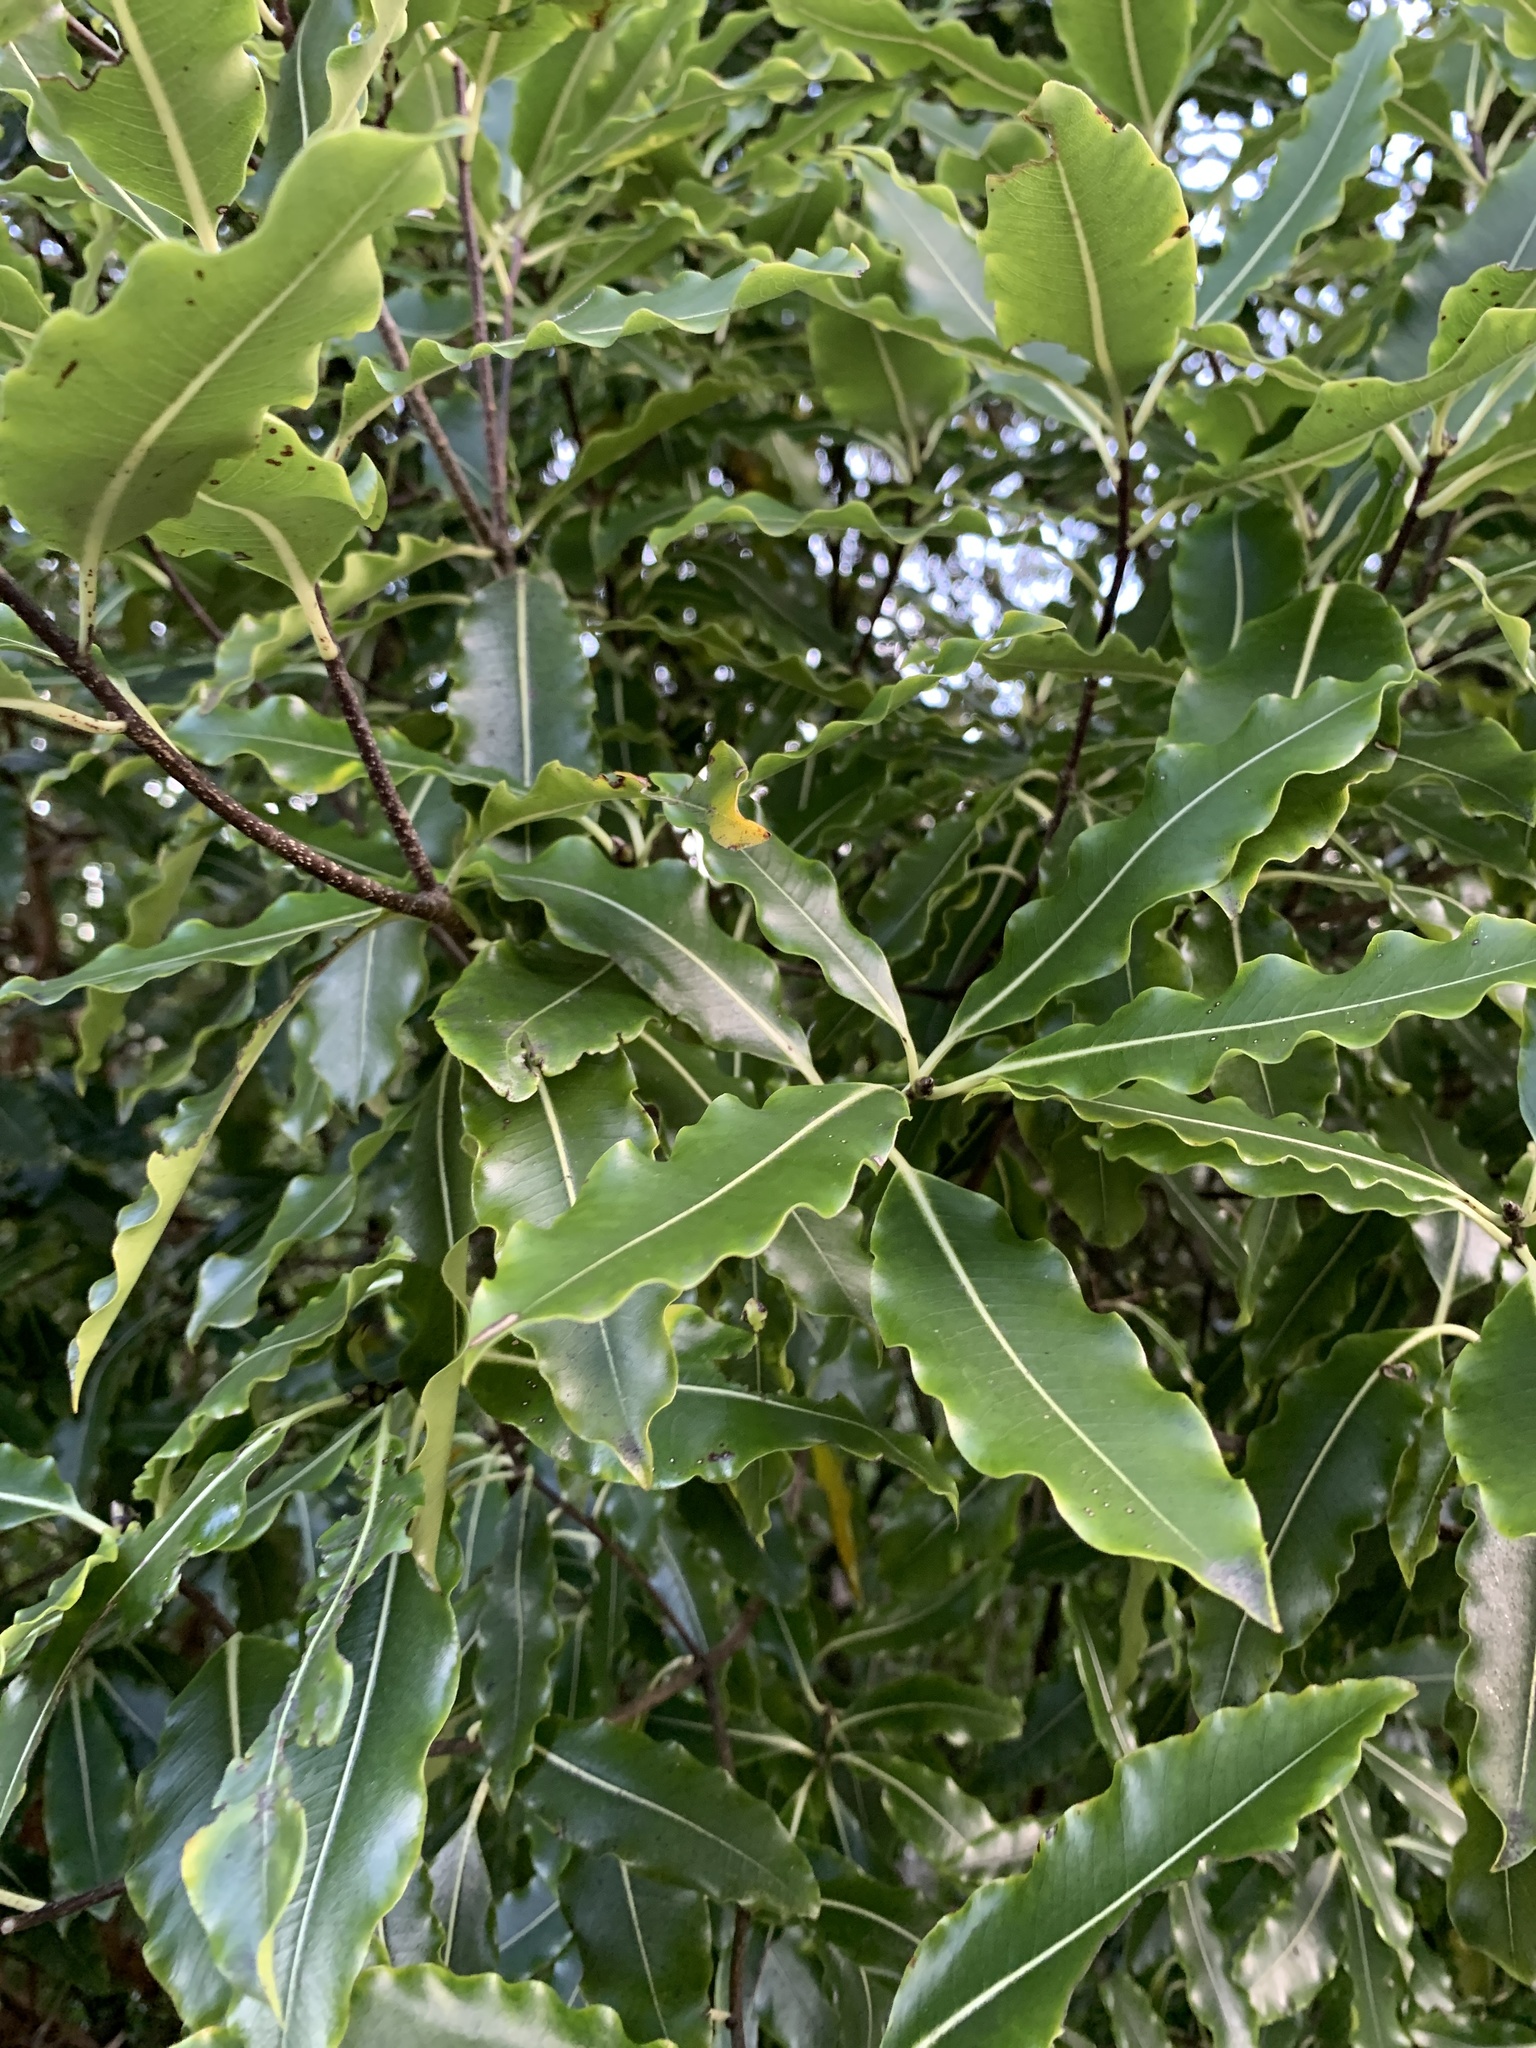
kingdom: Plantae
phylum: Tracheophyta
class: Magnoliopsida
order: Apiales
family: Pittosporaceae
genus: Pittosporum
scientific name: Pittosporum eugenioides
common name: Lemonwood
